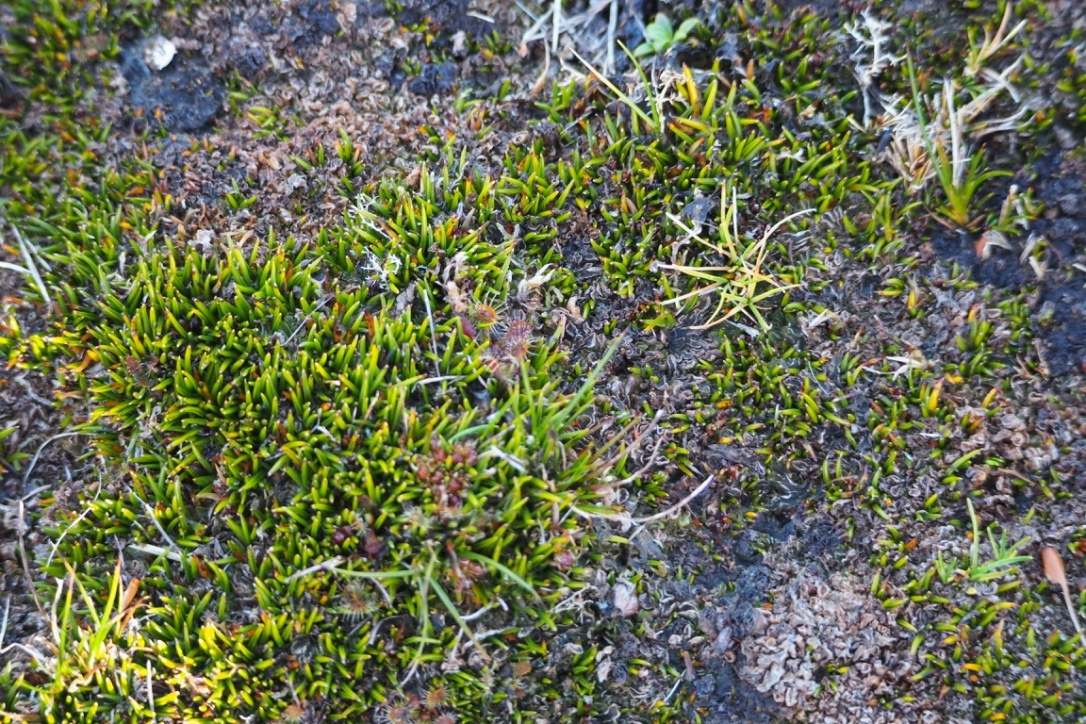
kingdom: Plantae
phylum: Tracheophyta
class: Magnoliopsida
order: Caryophyllales
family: Droseraceae
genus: Drosera
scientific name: Drosera stenopetala
